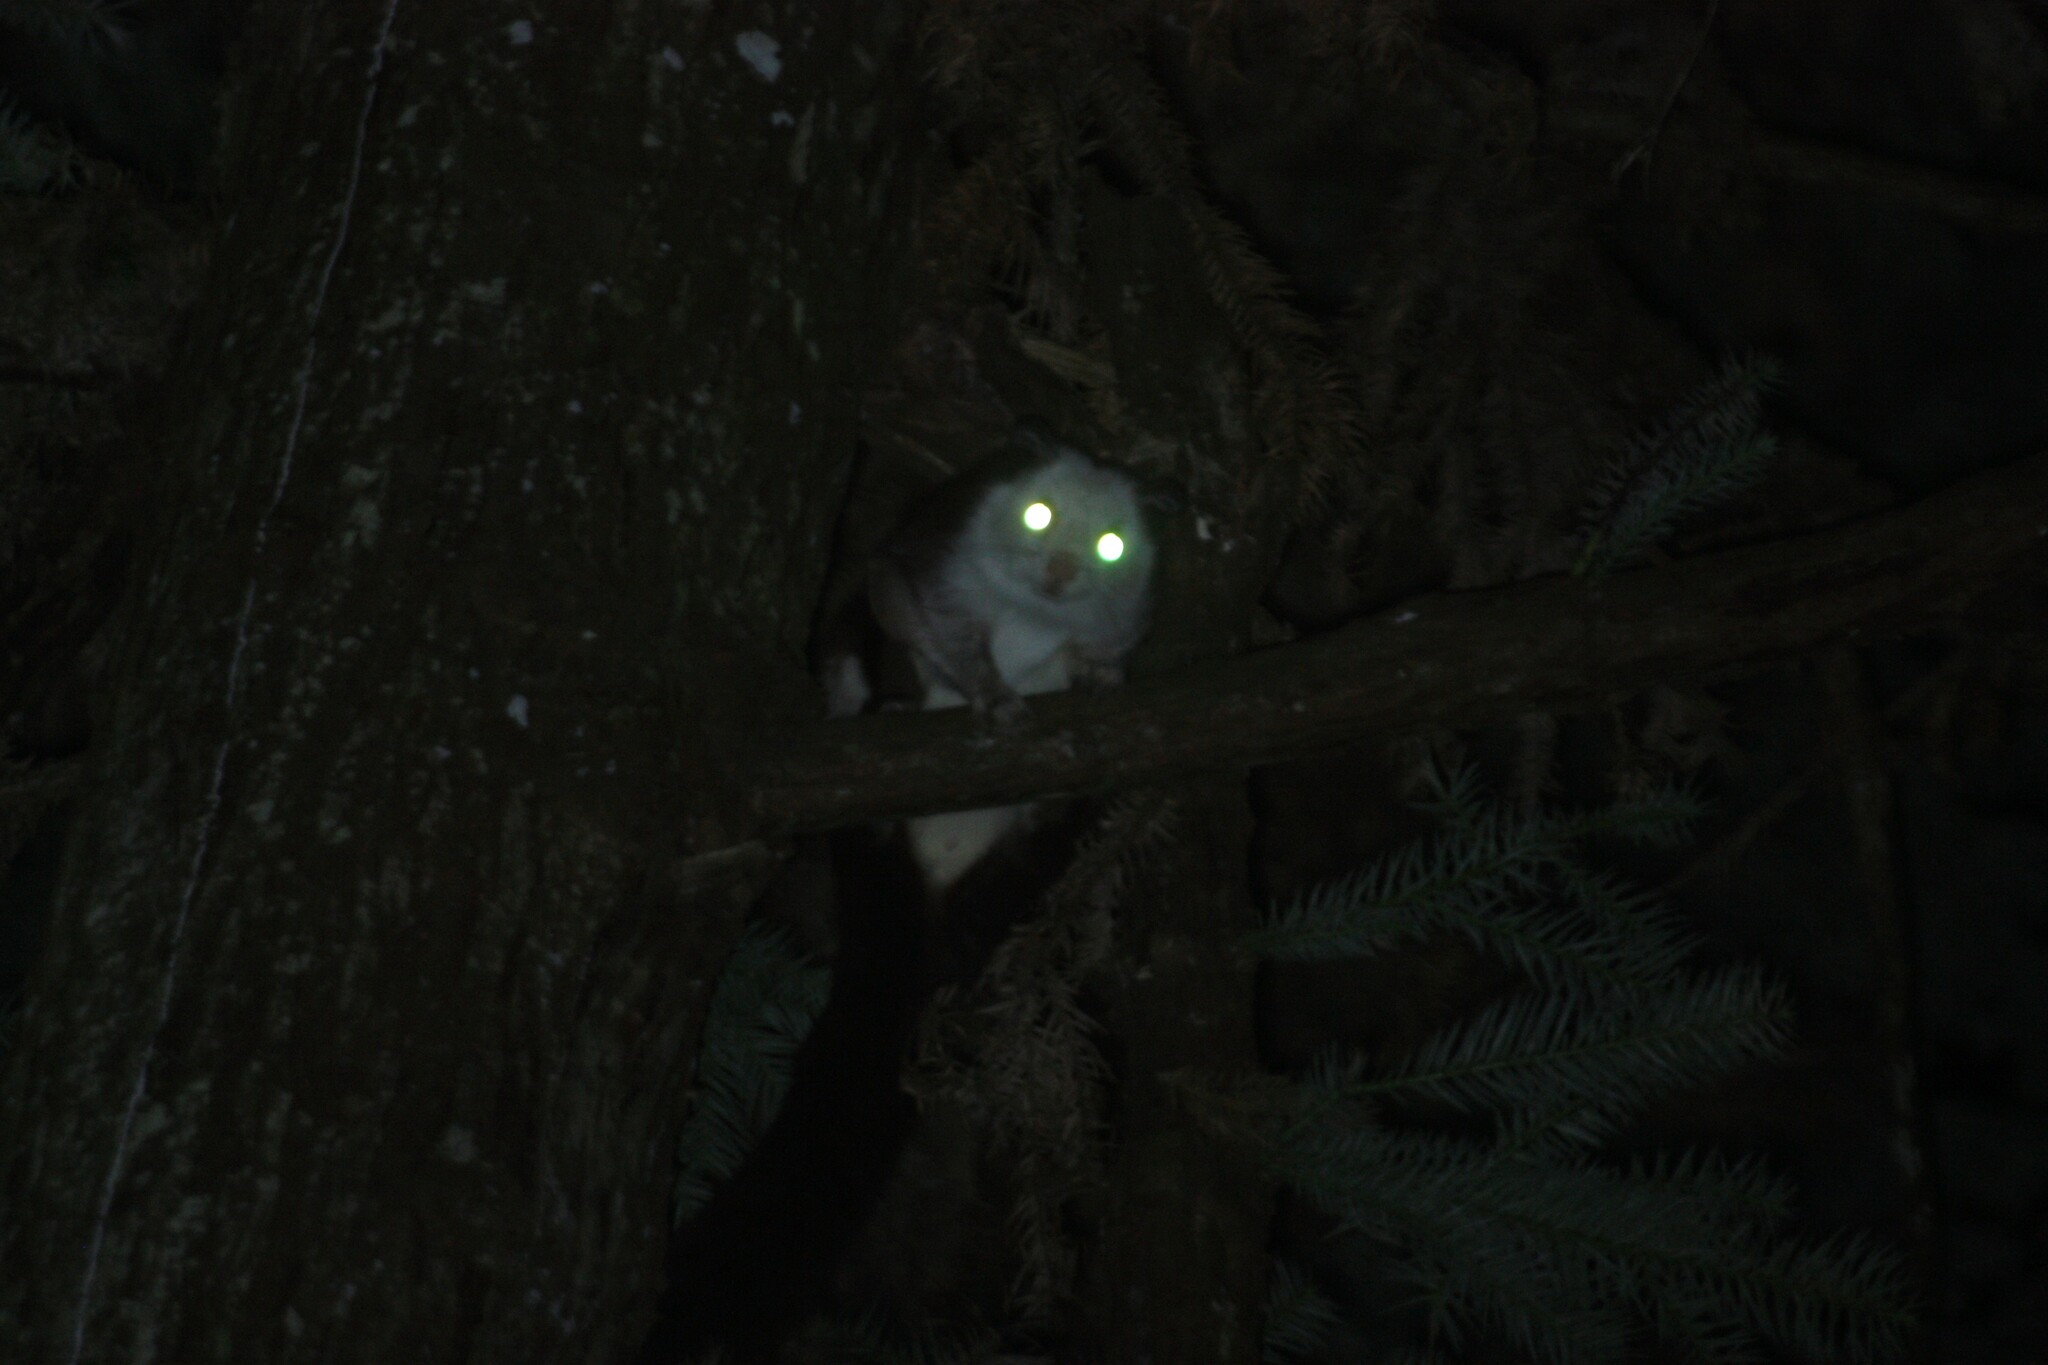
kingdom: Animalia
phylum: Chordata
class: Mammalia
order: Rodentia
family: Sciuridae
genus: Petaurista
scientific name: Petaurista lena
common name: Taiwan giant flying squirrel
